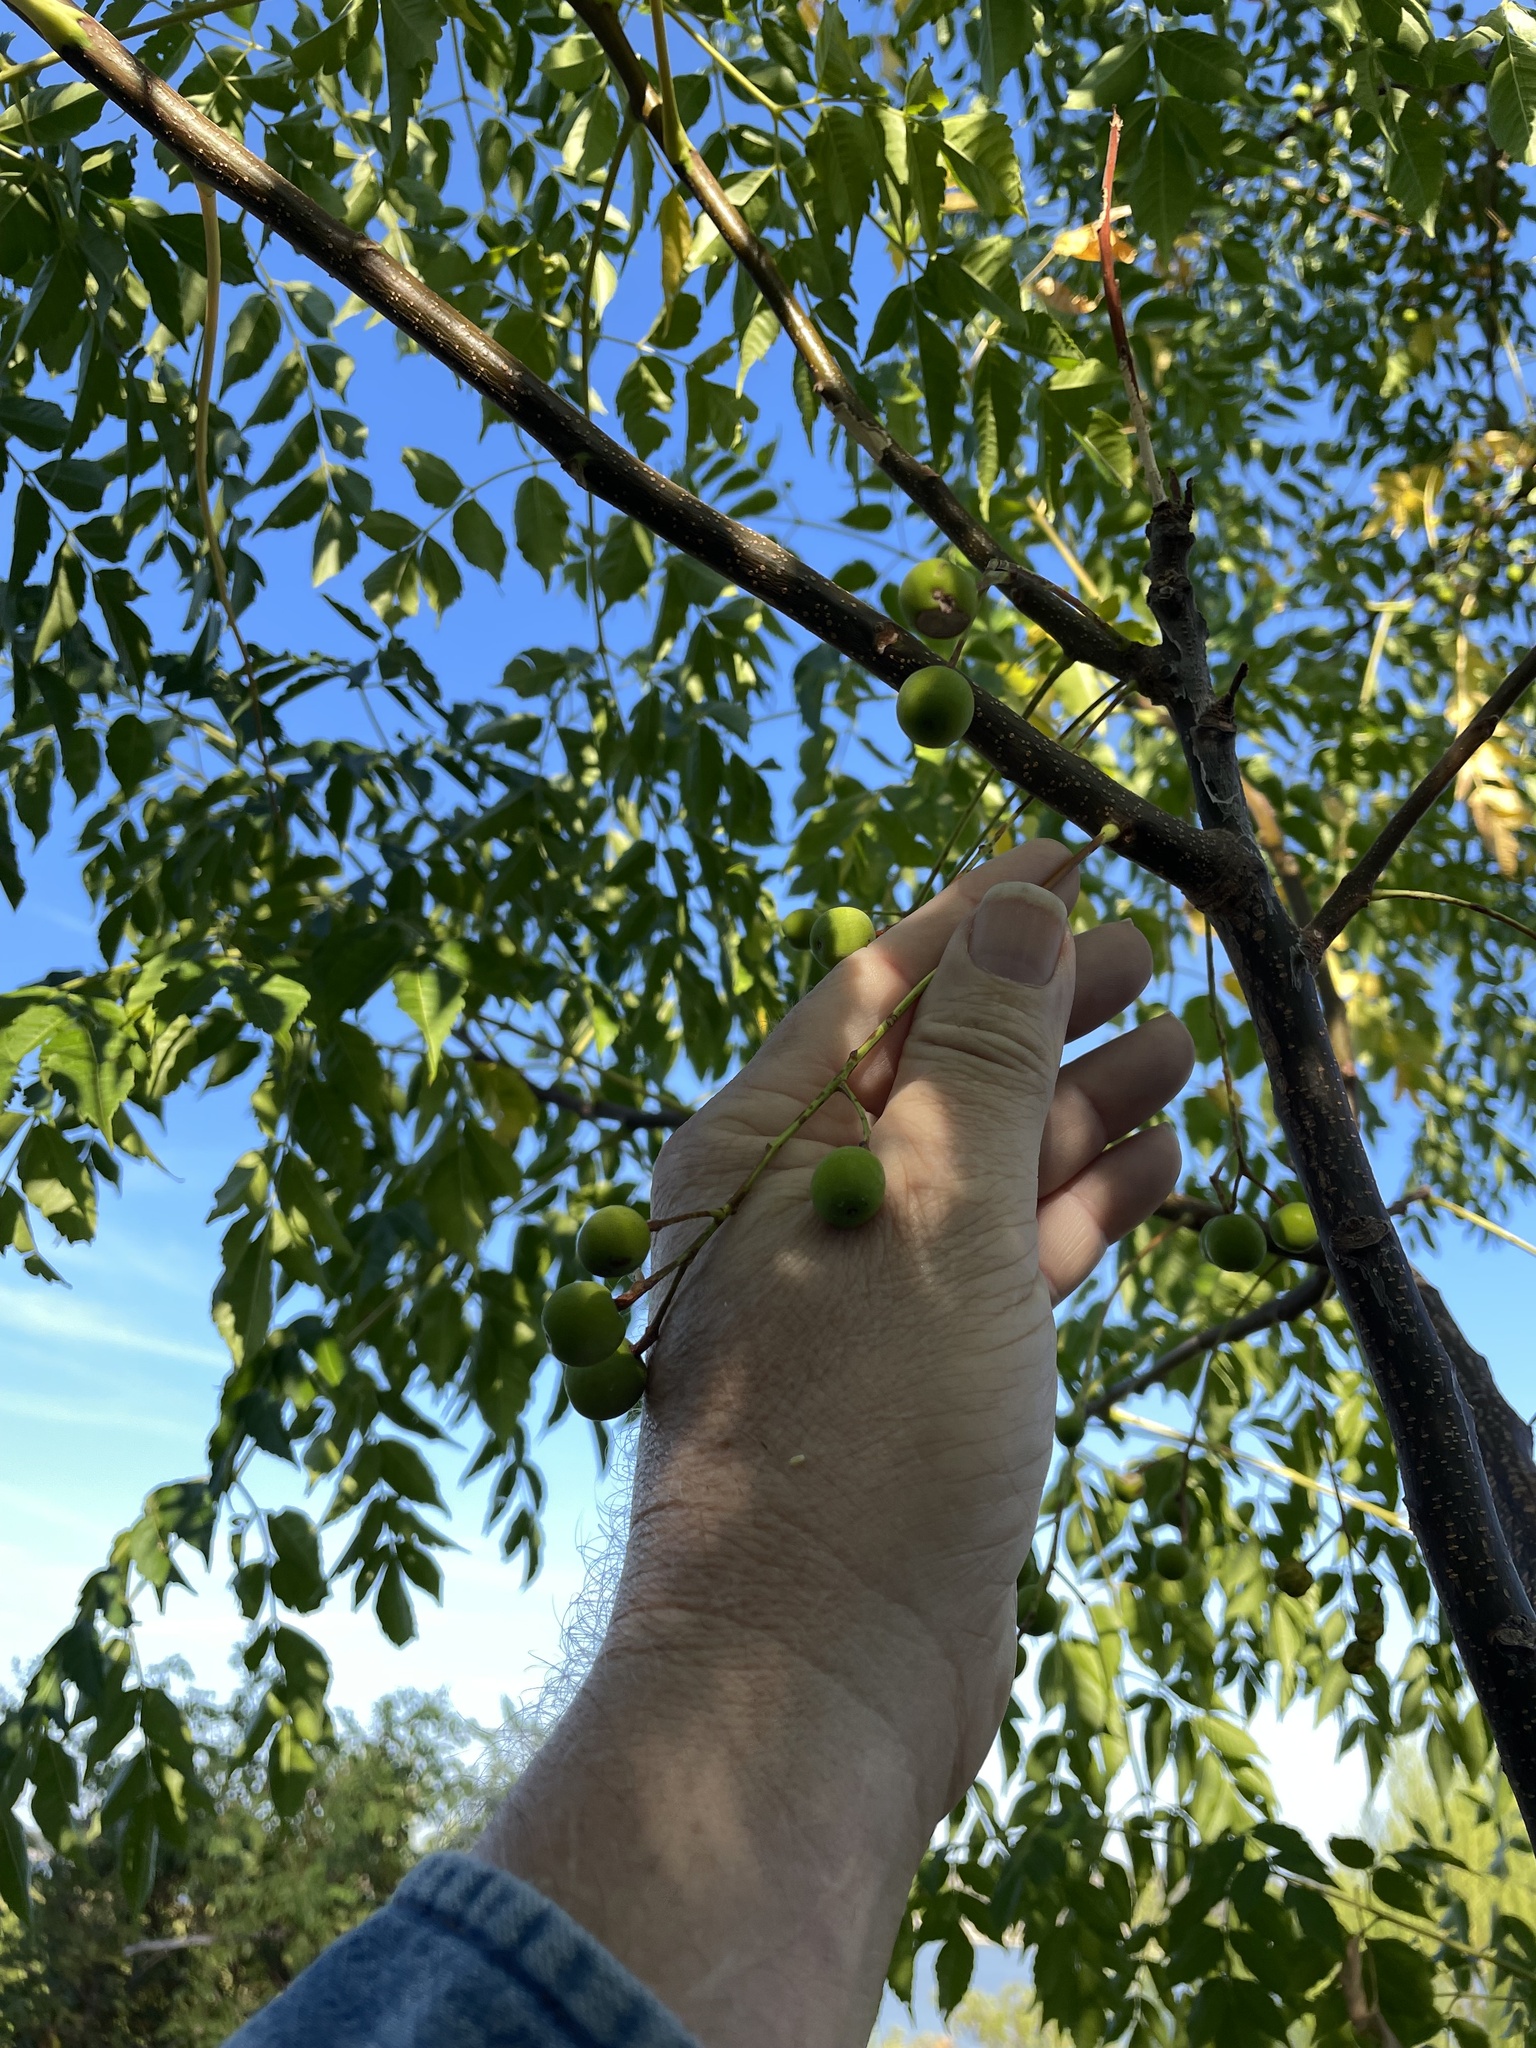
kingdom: Plantae
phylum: Tracheophyta
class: Magnoliopsida
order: Sapindales
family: Meliaceae
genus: Melia
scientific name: Melia azedarach
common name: Chinaberrytree
